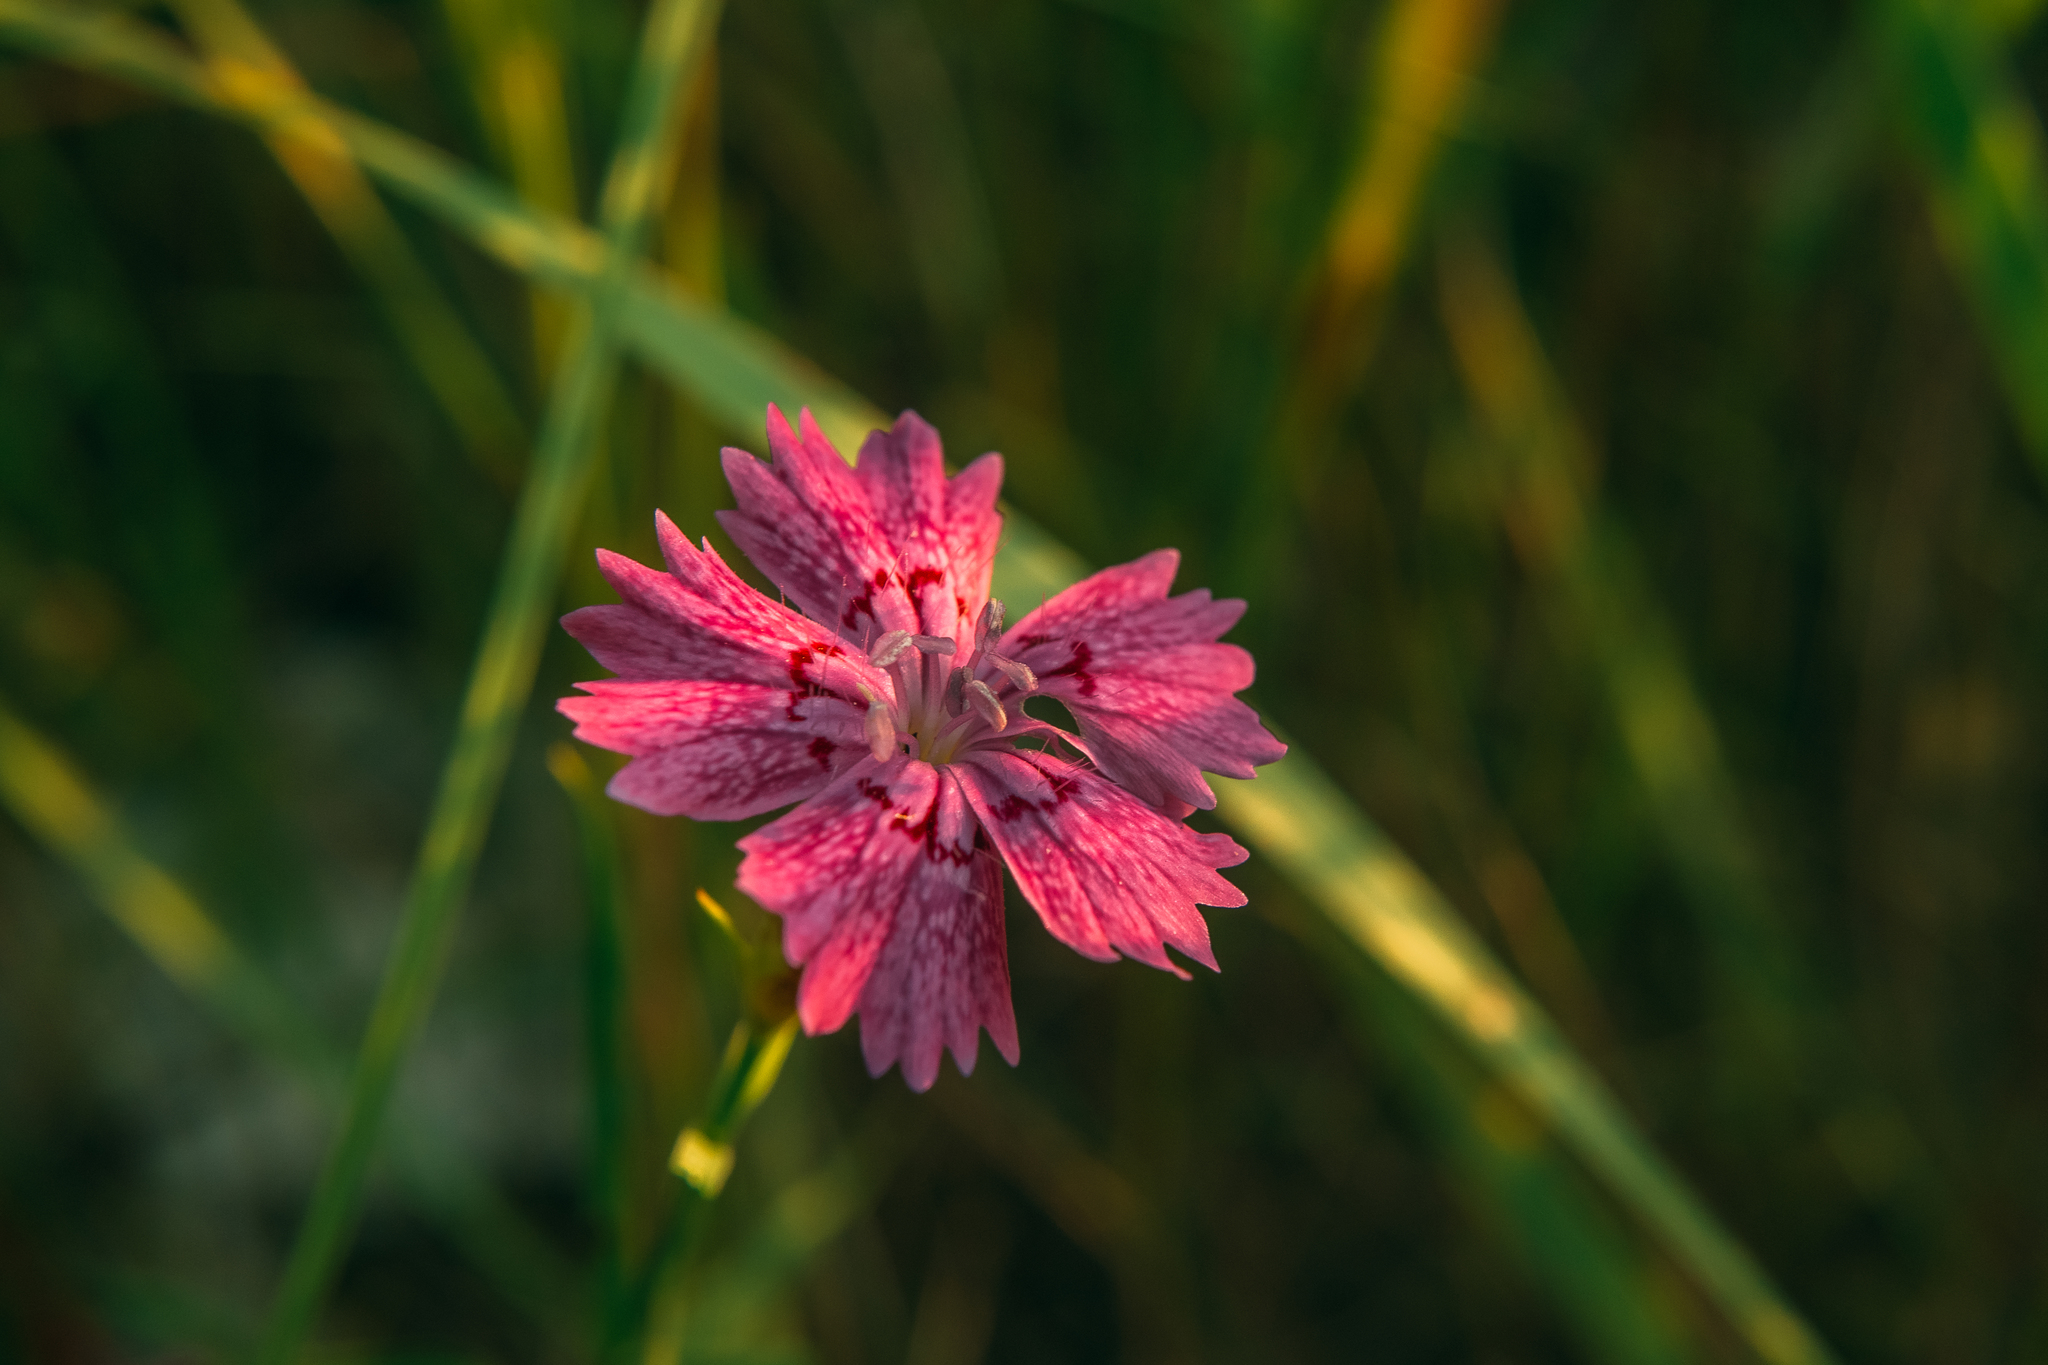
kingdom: Plantae
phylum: Tracheophyta
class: Magnoliopsida
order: Caryophyllales
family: Caryophyllaceae
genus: Dianthus
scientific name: Dianthus chinensis
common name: Rainbow pink
